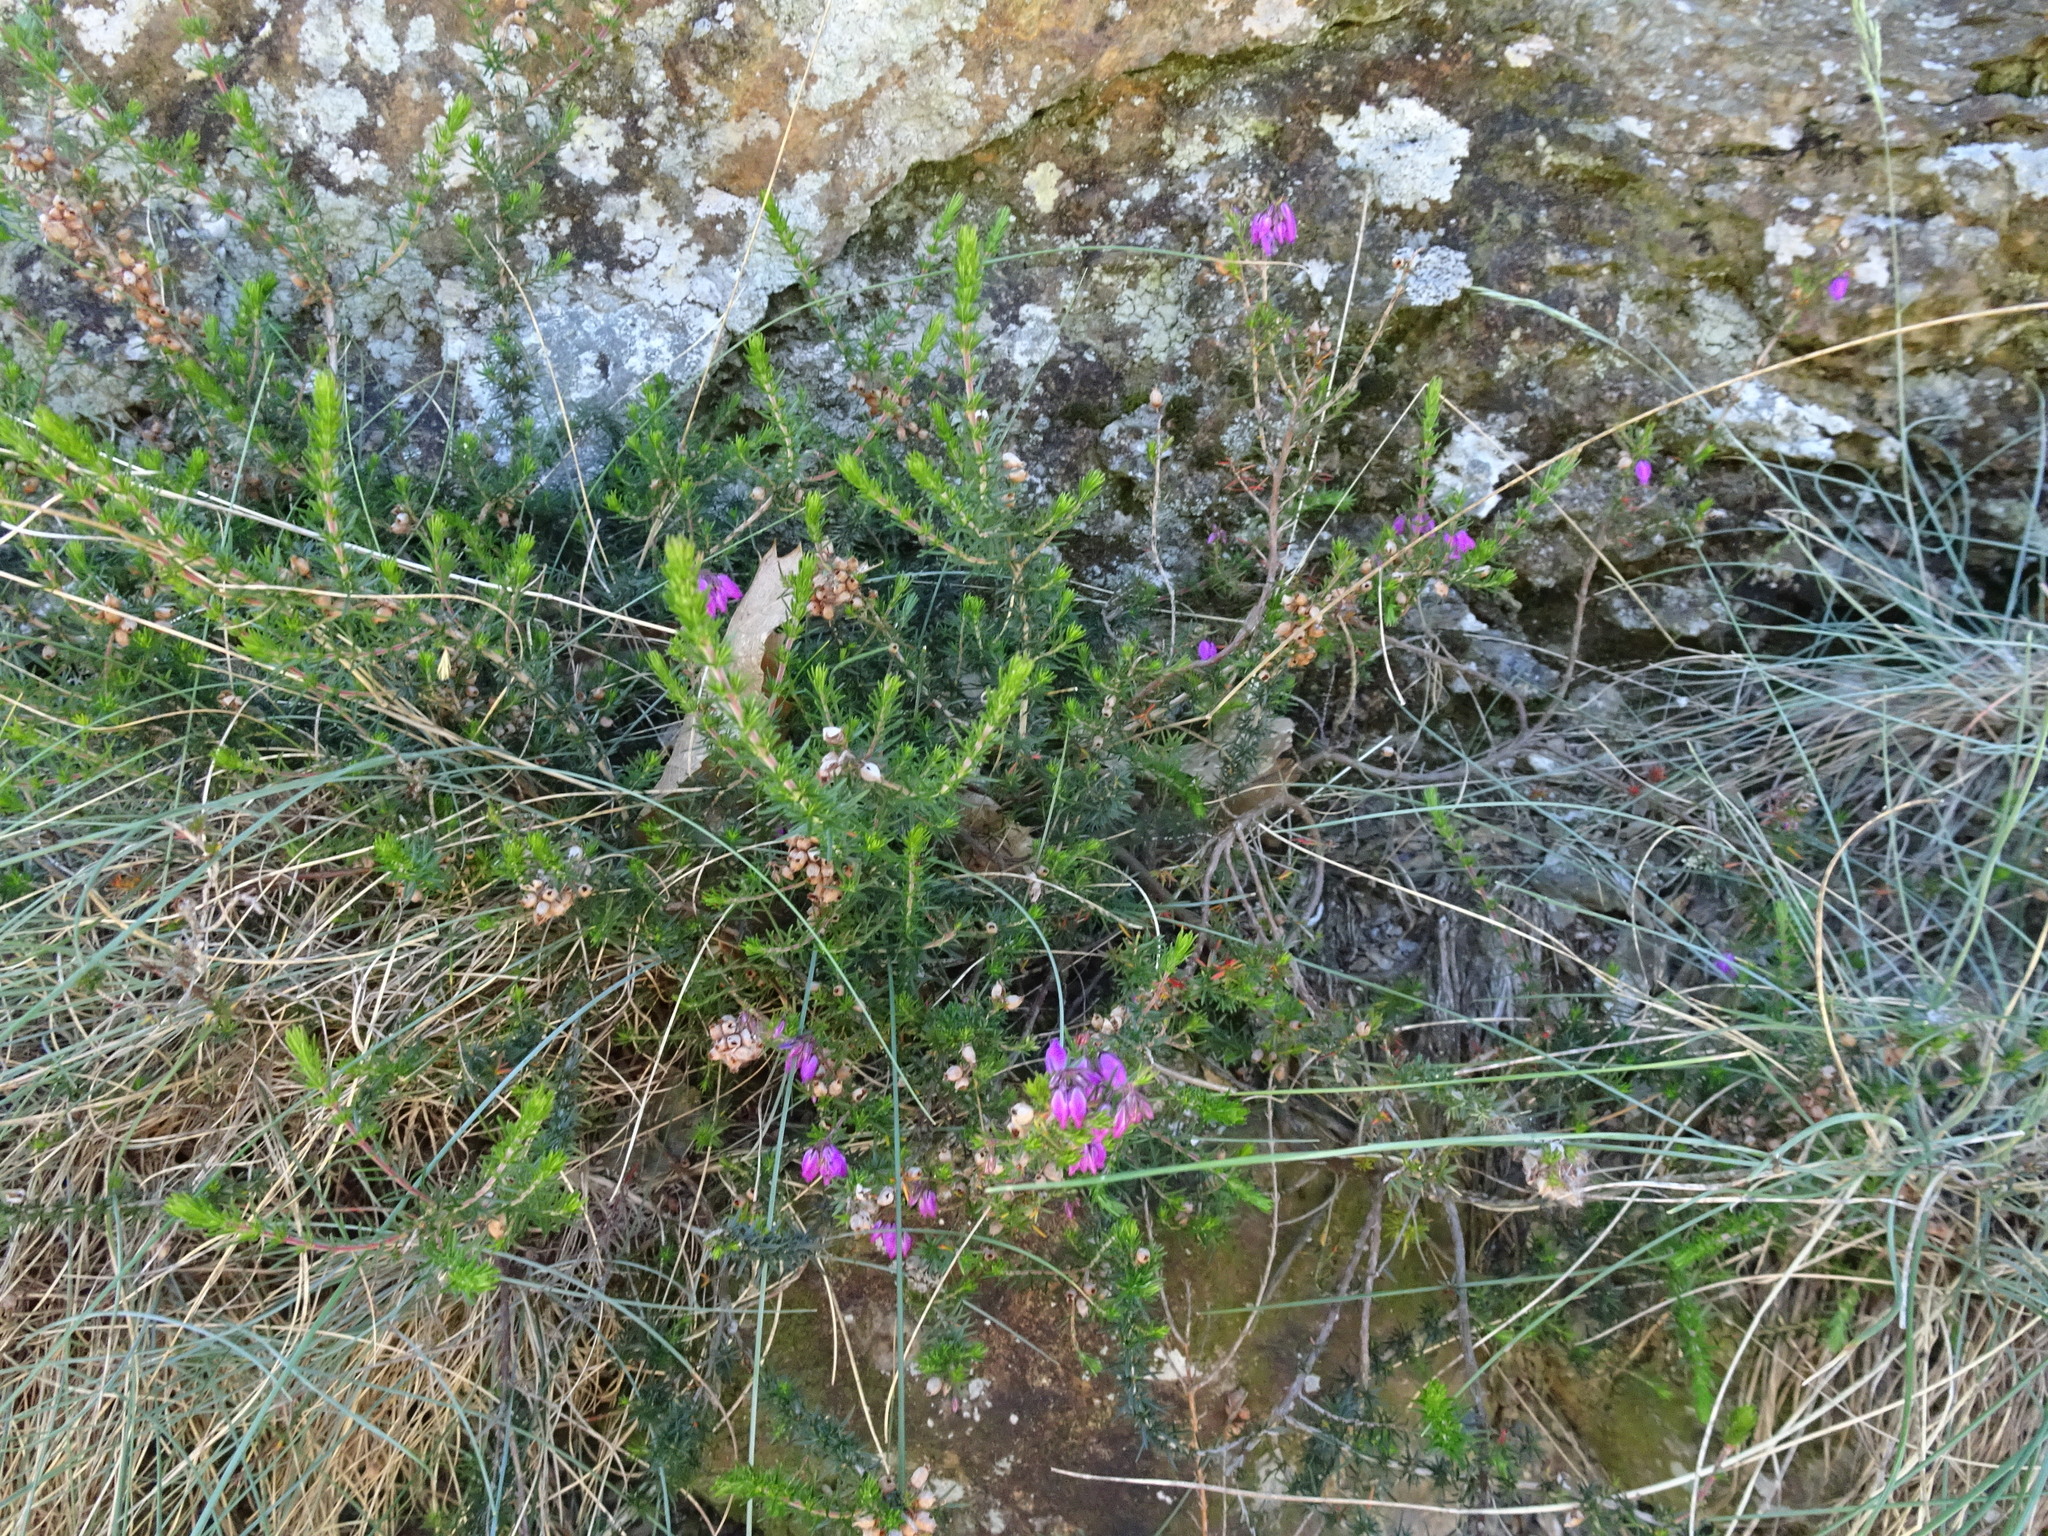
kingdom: Plantae
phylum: Tracheophyta
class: Magnoliopsida
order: Ericales
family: Ericaceae
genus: Erica
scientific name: Erica cinerea
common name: Bell heather
